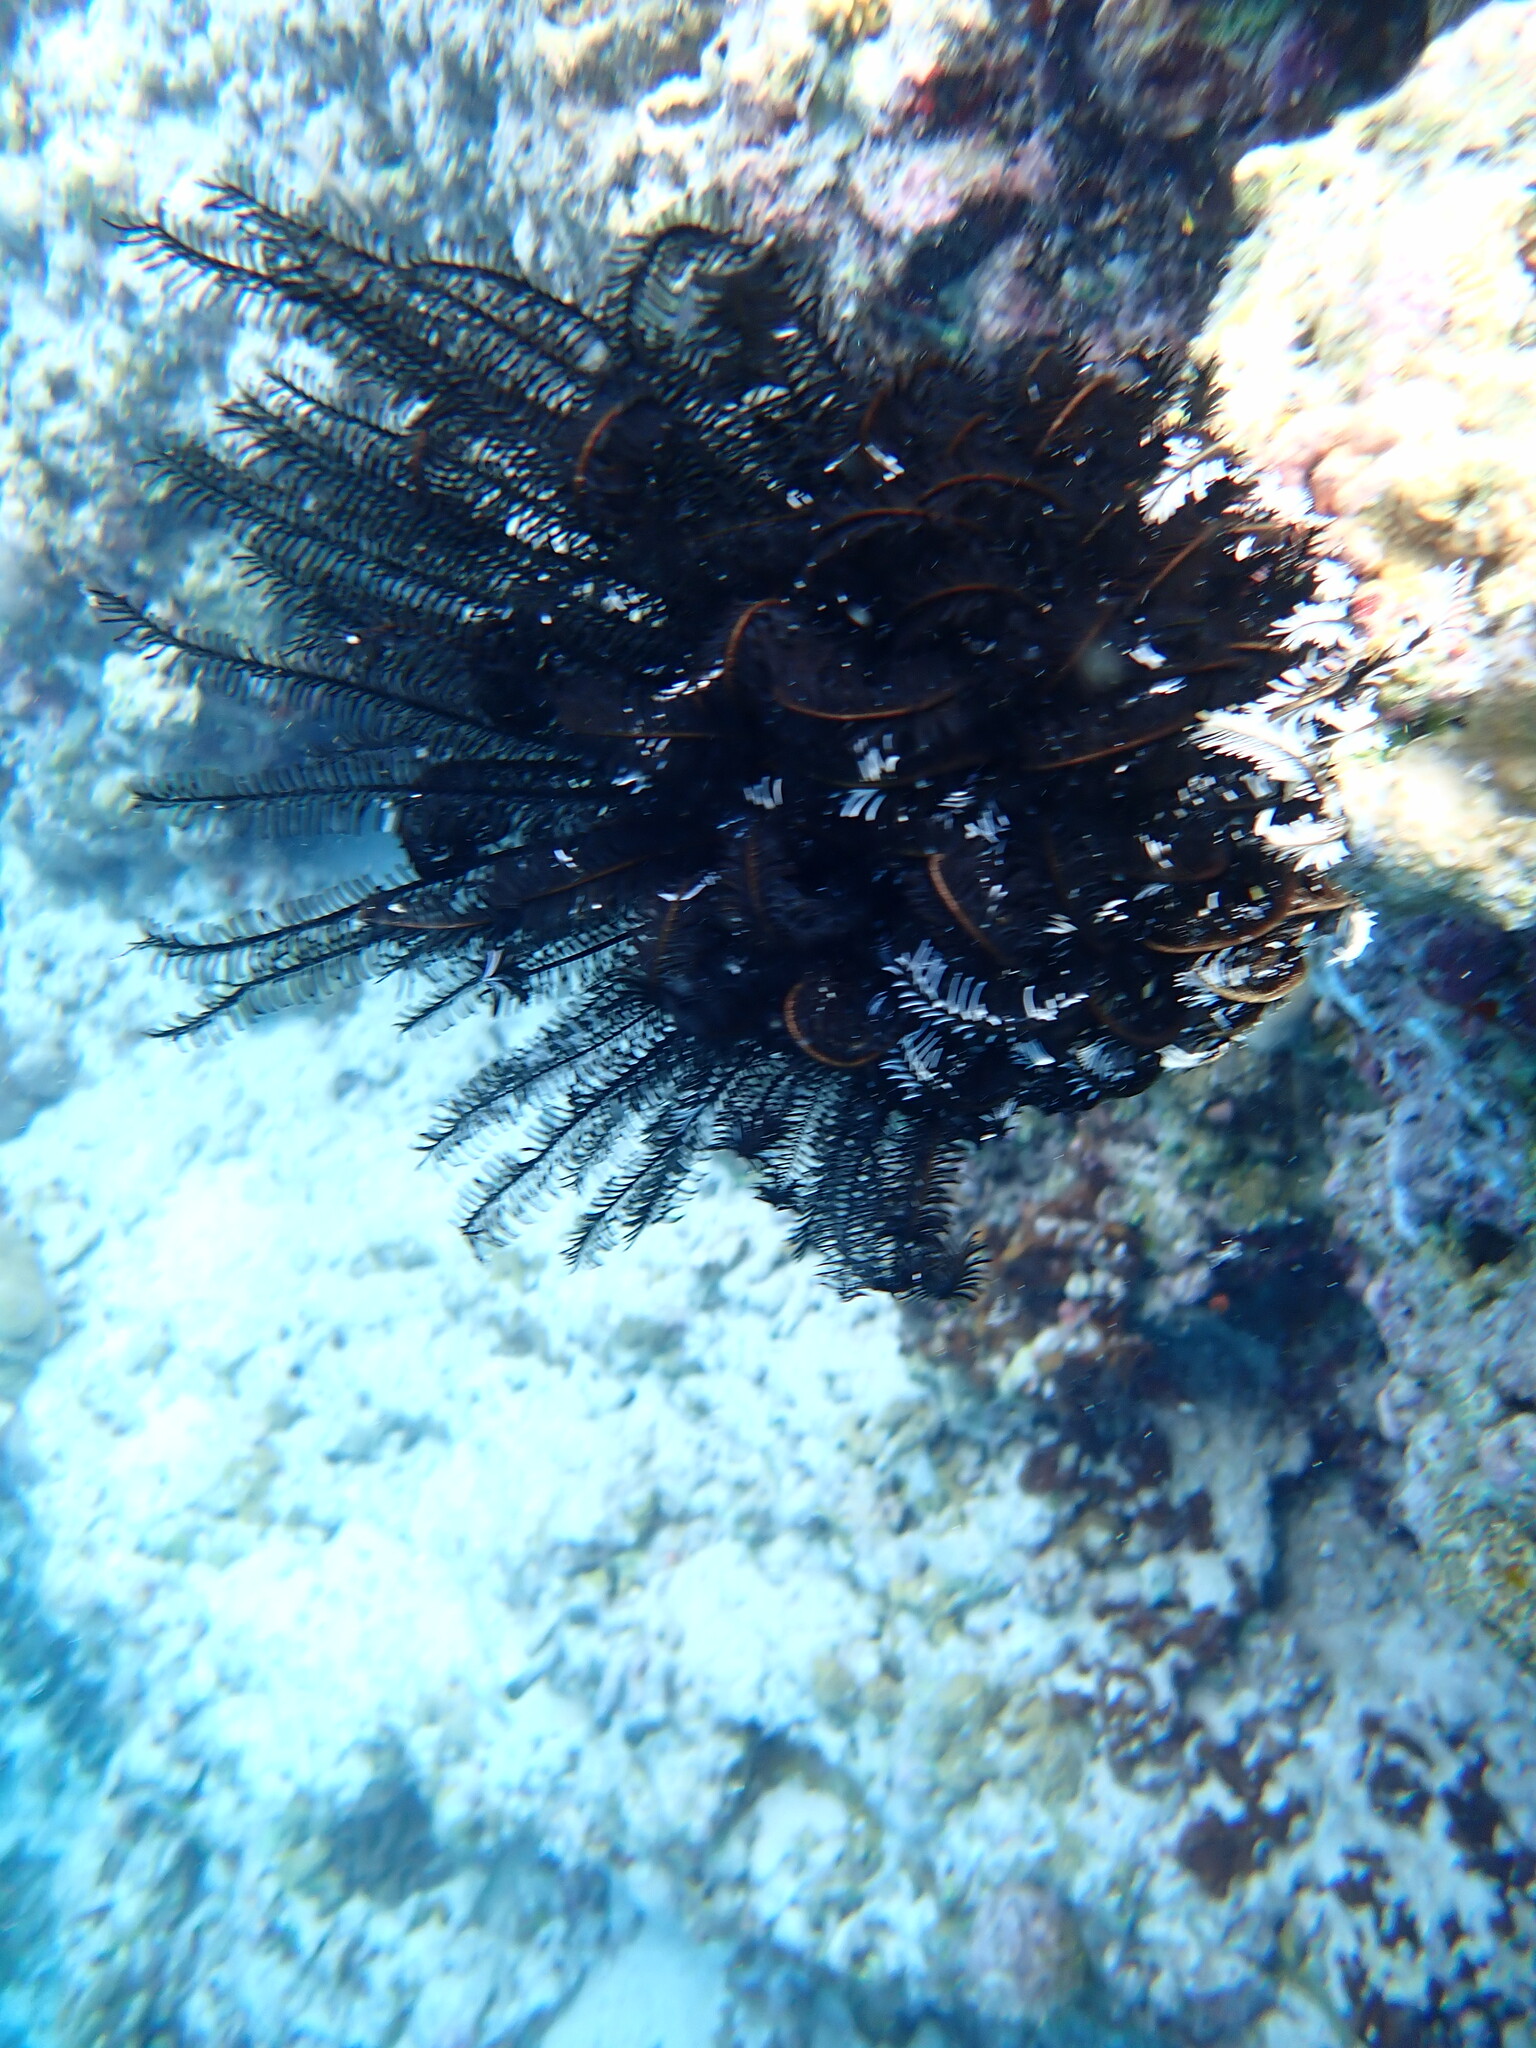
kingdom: Animalia
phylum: Echinodermata
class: Crinoidea
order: Comatulida
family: Comatulidae
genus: Comaster
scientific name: Comaster schlegelii
